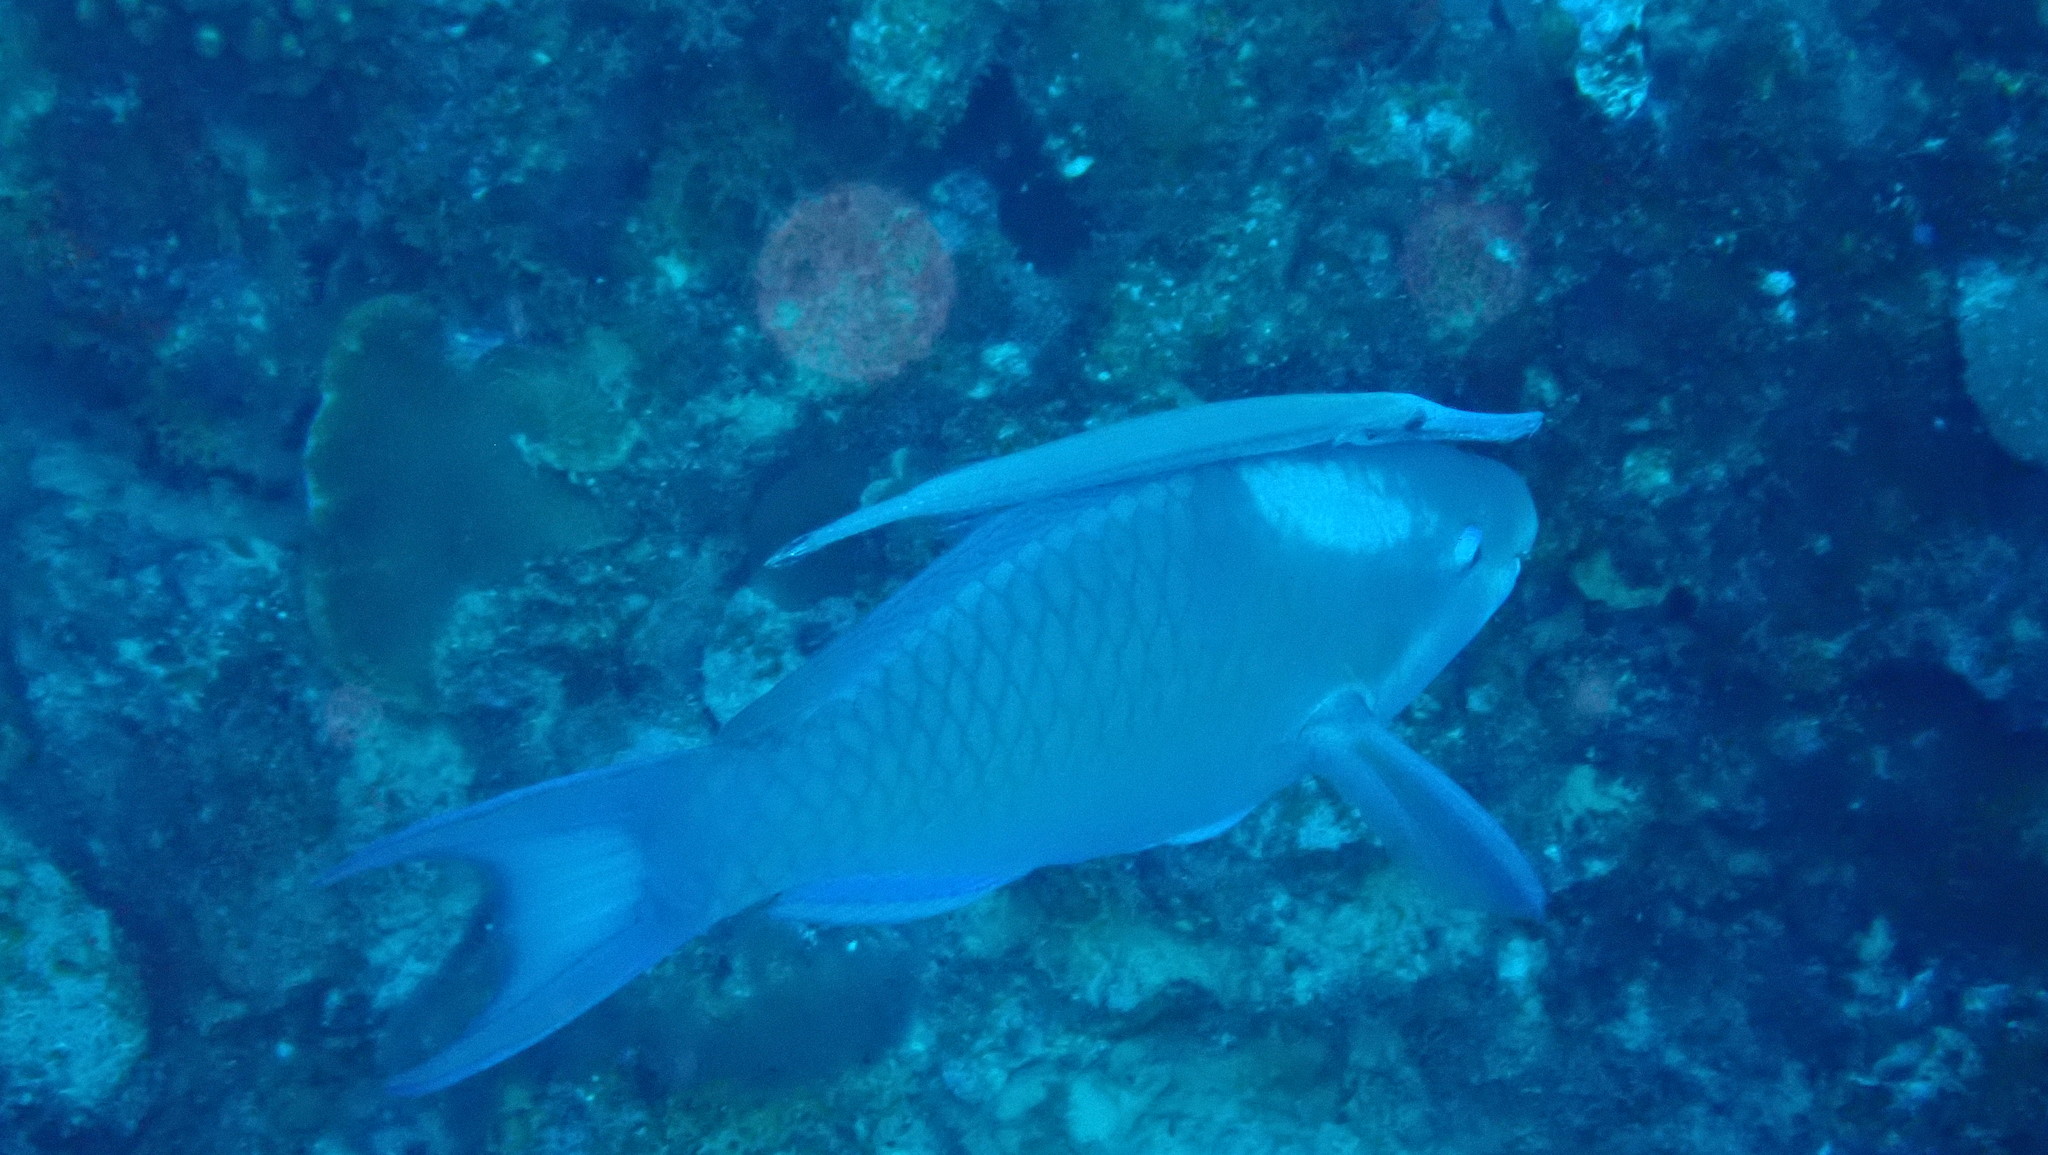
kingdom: Animalia
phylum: Chordata
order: Perciformes
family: Scaridae
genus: Scarus
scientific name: Scarus vetula
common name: Queen parrotfish
